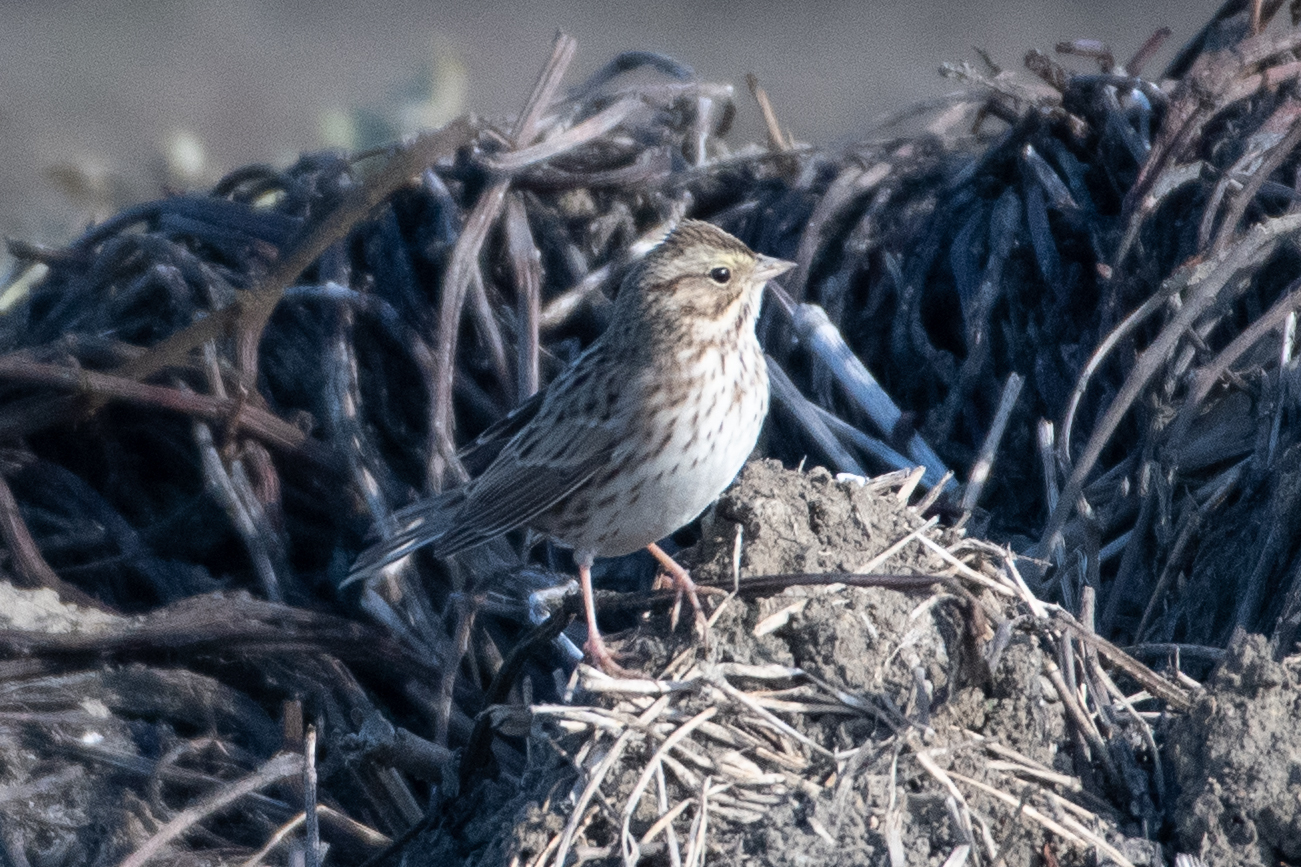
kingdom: Animalia
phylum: Chordata
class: Aves
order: Passeriformes
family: Passerellidae
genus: Passerculus
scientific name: Passerculus sandwichensis
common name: Savannah sparrow
